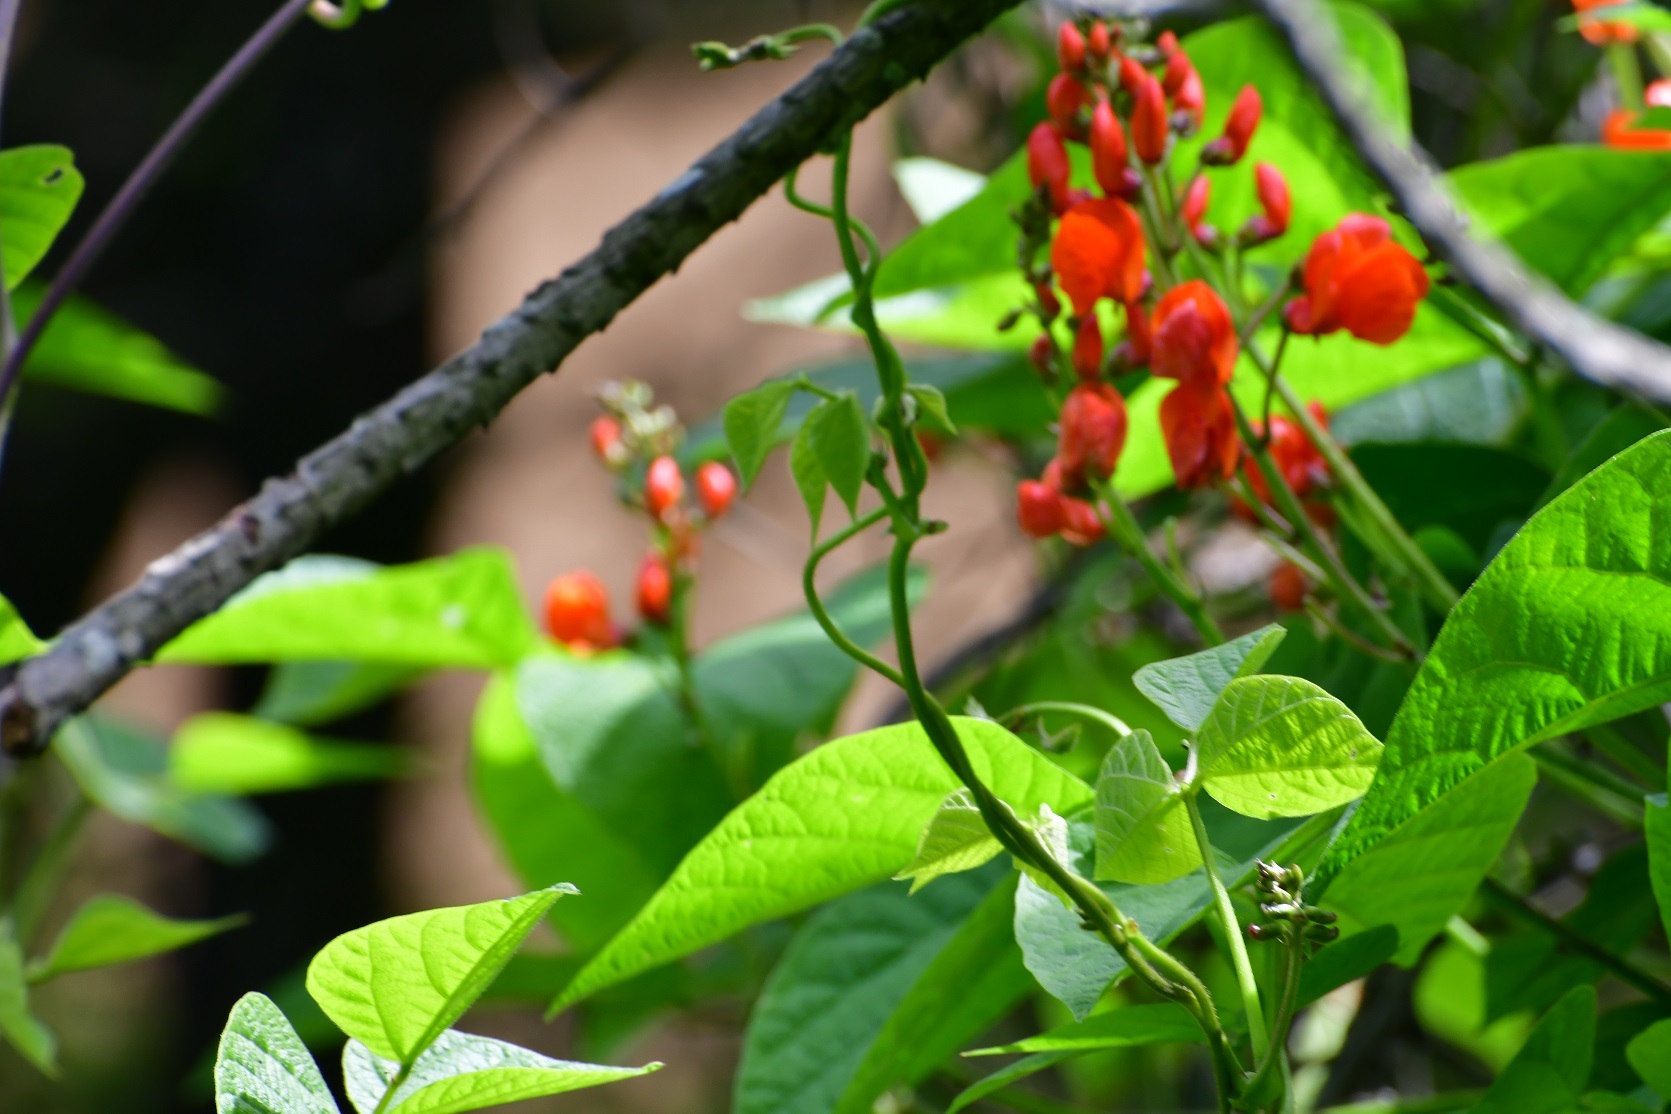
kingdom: Plantae
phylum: Tracheophyta
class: Magnoliopsida
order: Fabales
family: Fabaceae
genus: Phaseolus
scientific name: Phaseolus coccineus
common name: Runner bean
